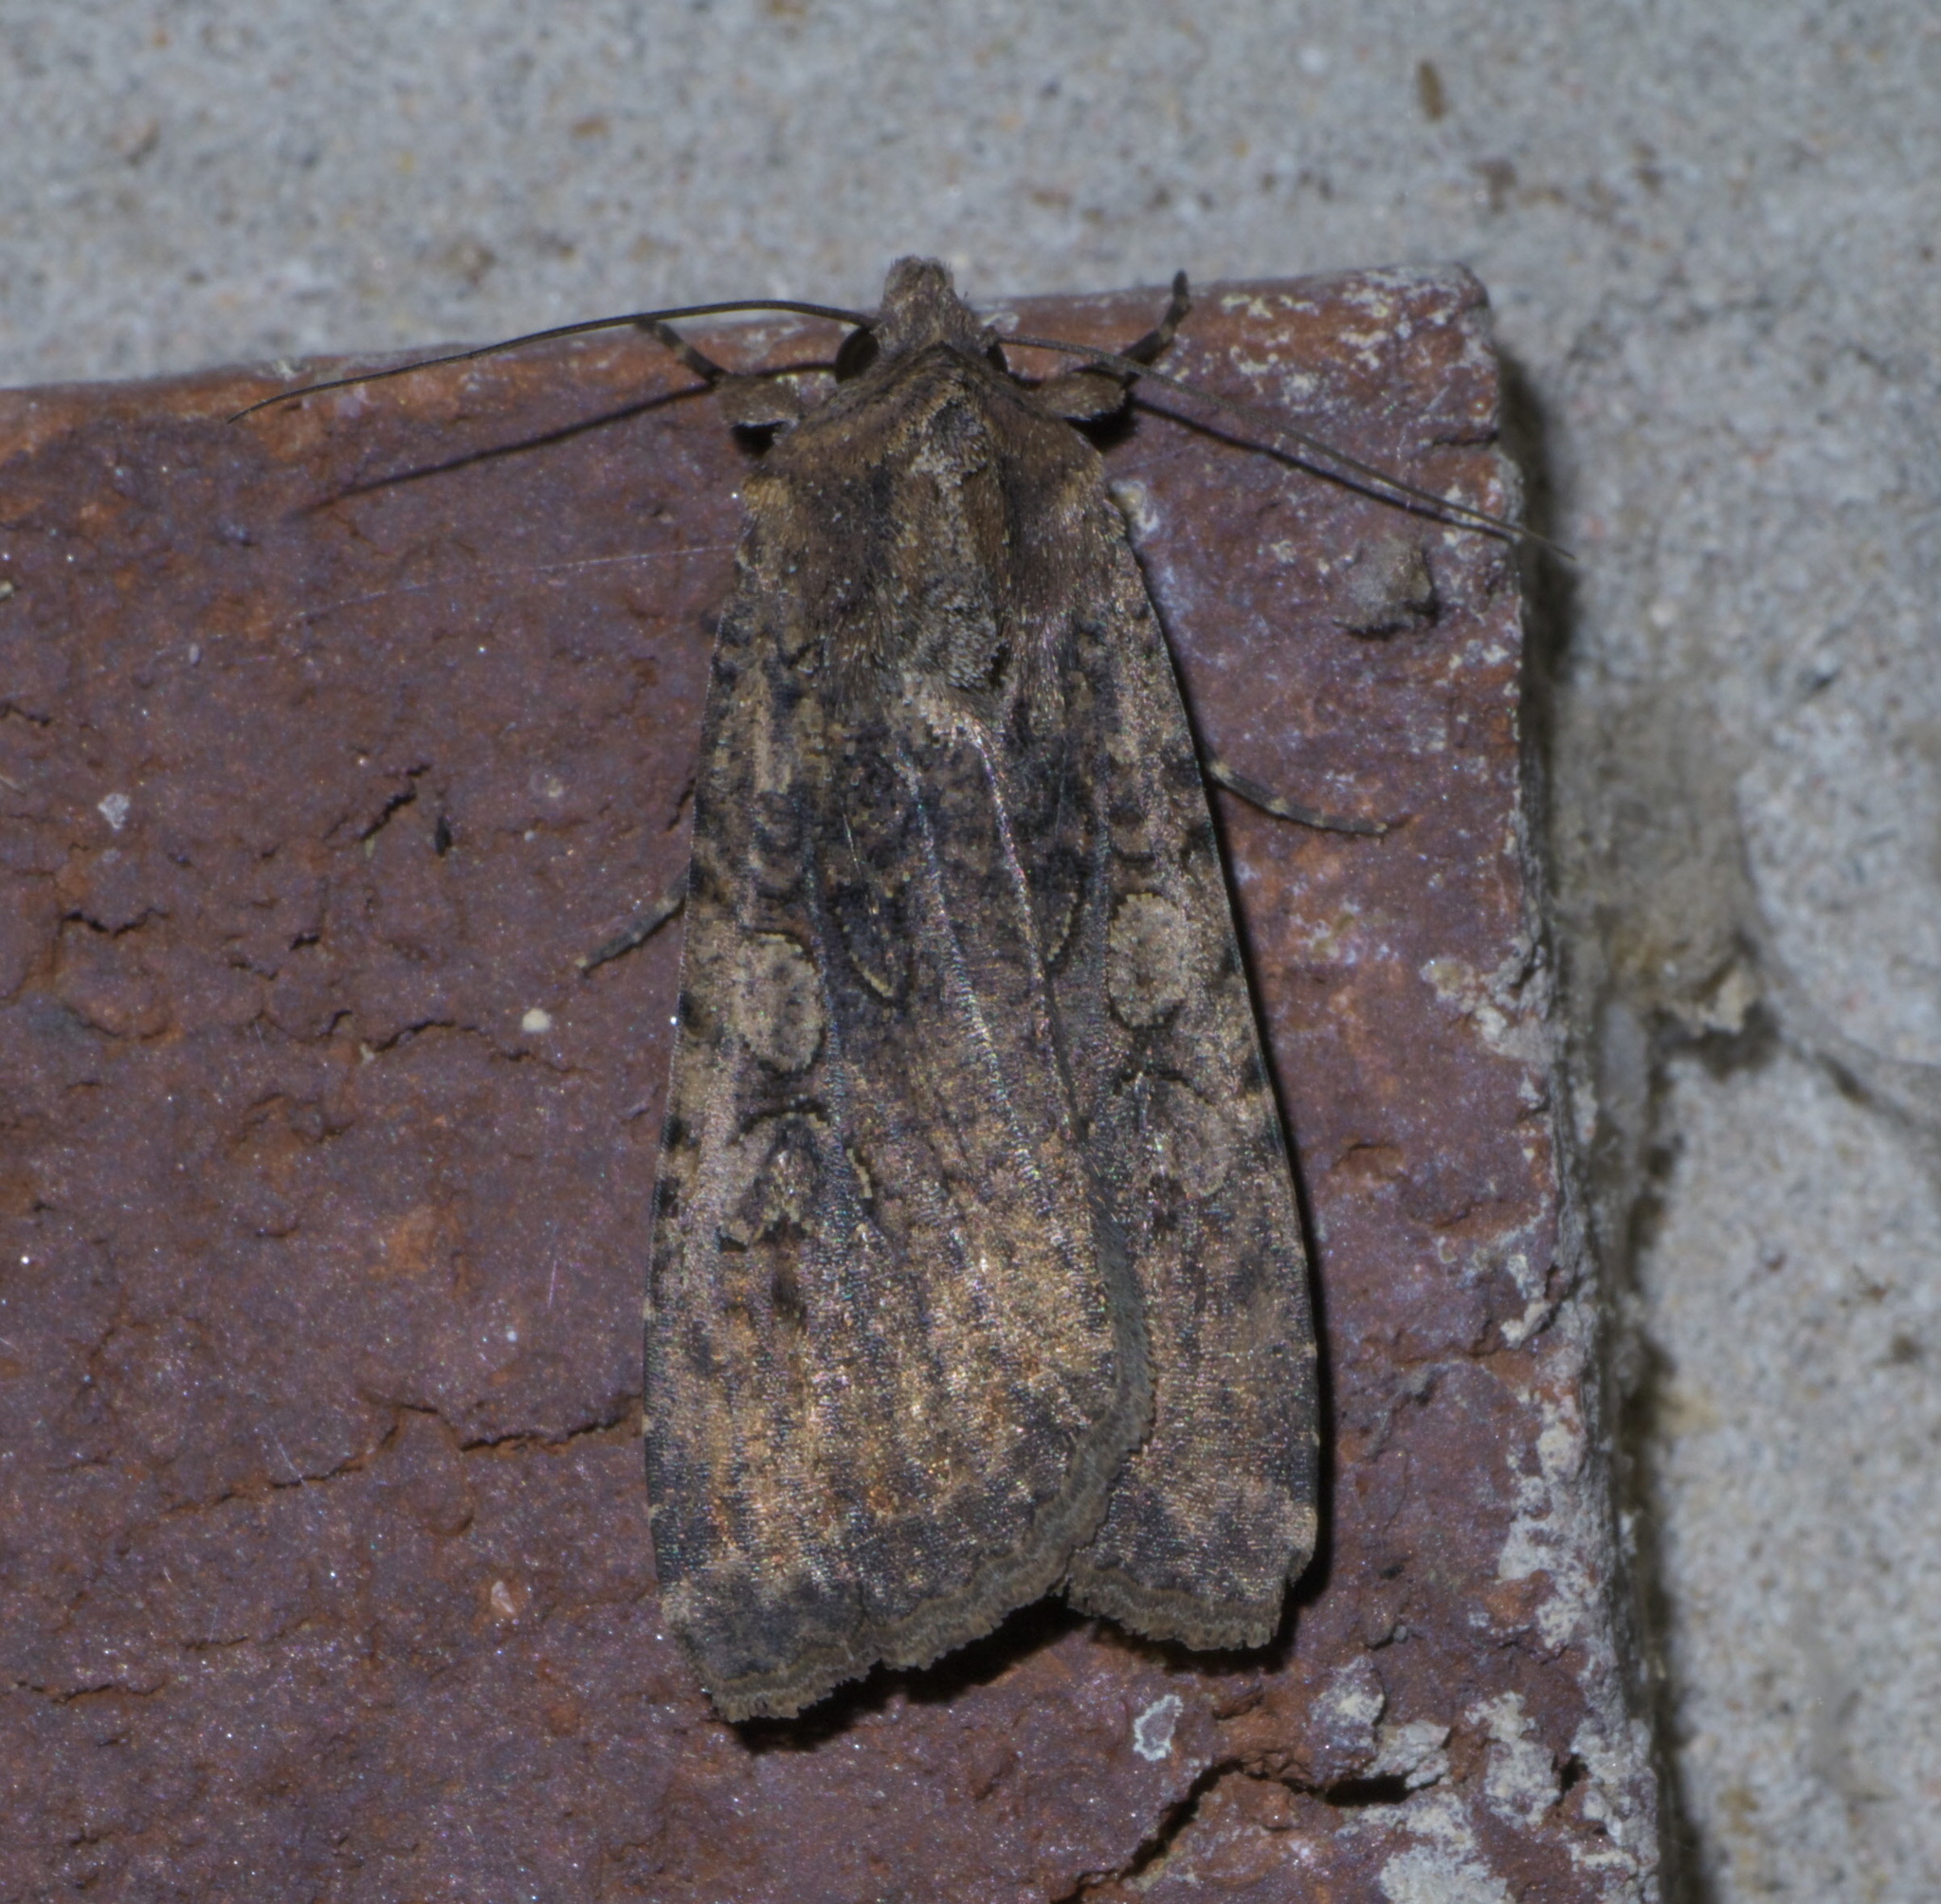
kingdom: Animalia
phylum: Arthropoda
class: Insecta
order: Lepidoptera
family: Noctuidae
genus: Peridroma
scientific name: Peridroma saucia
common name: Pearly underwing
